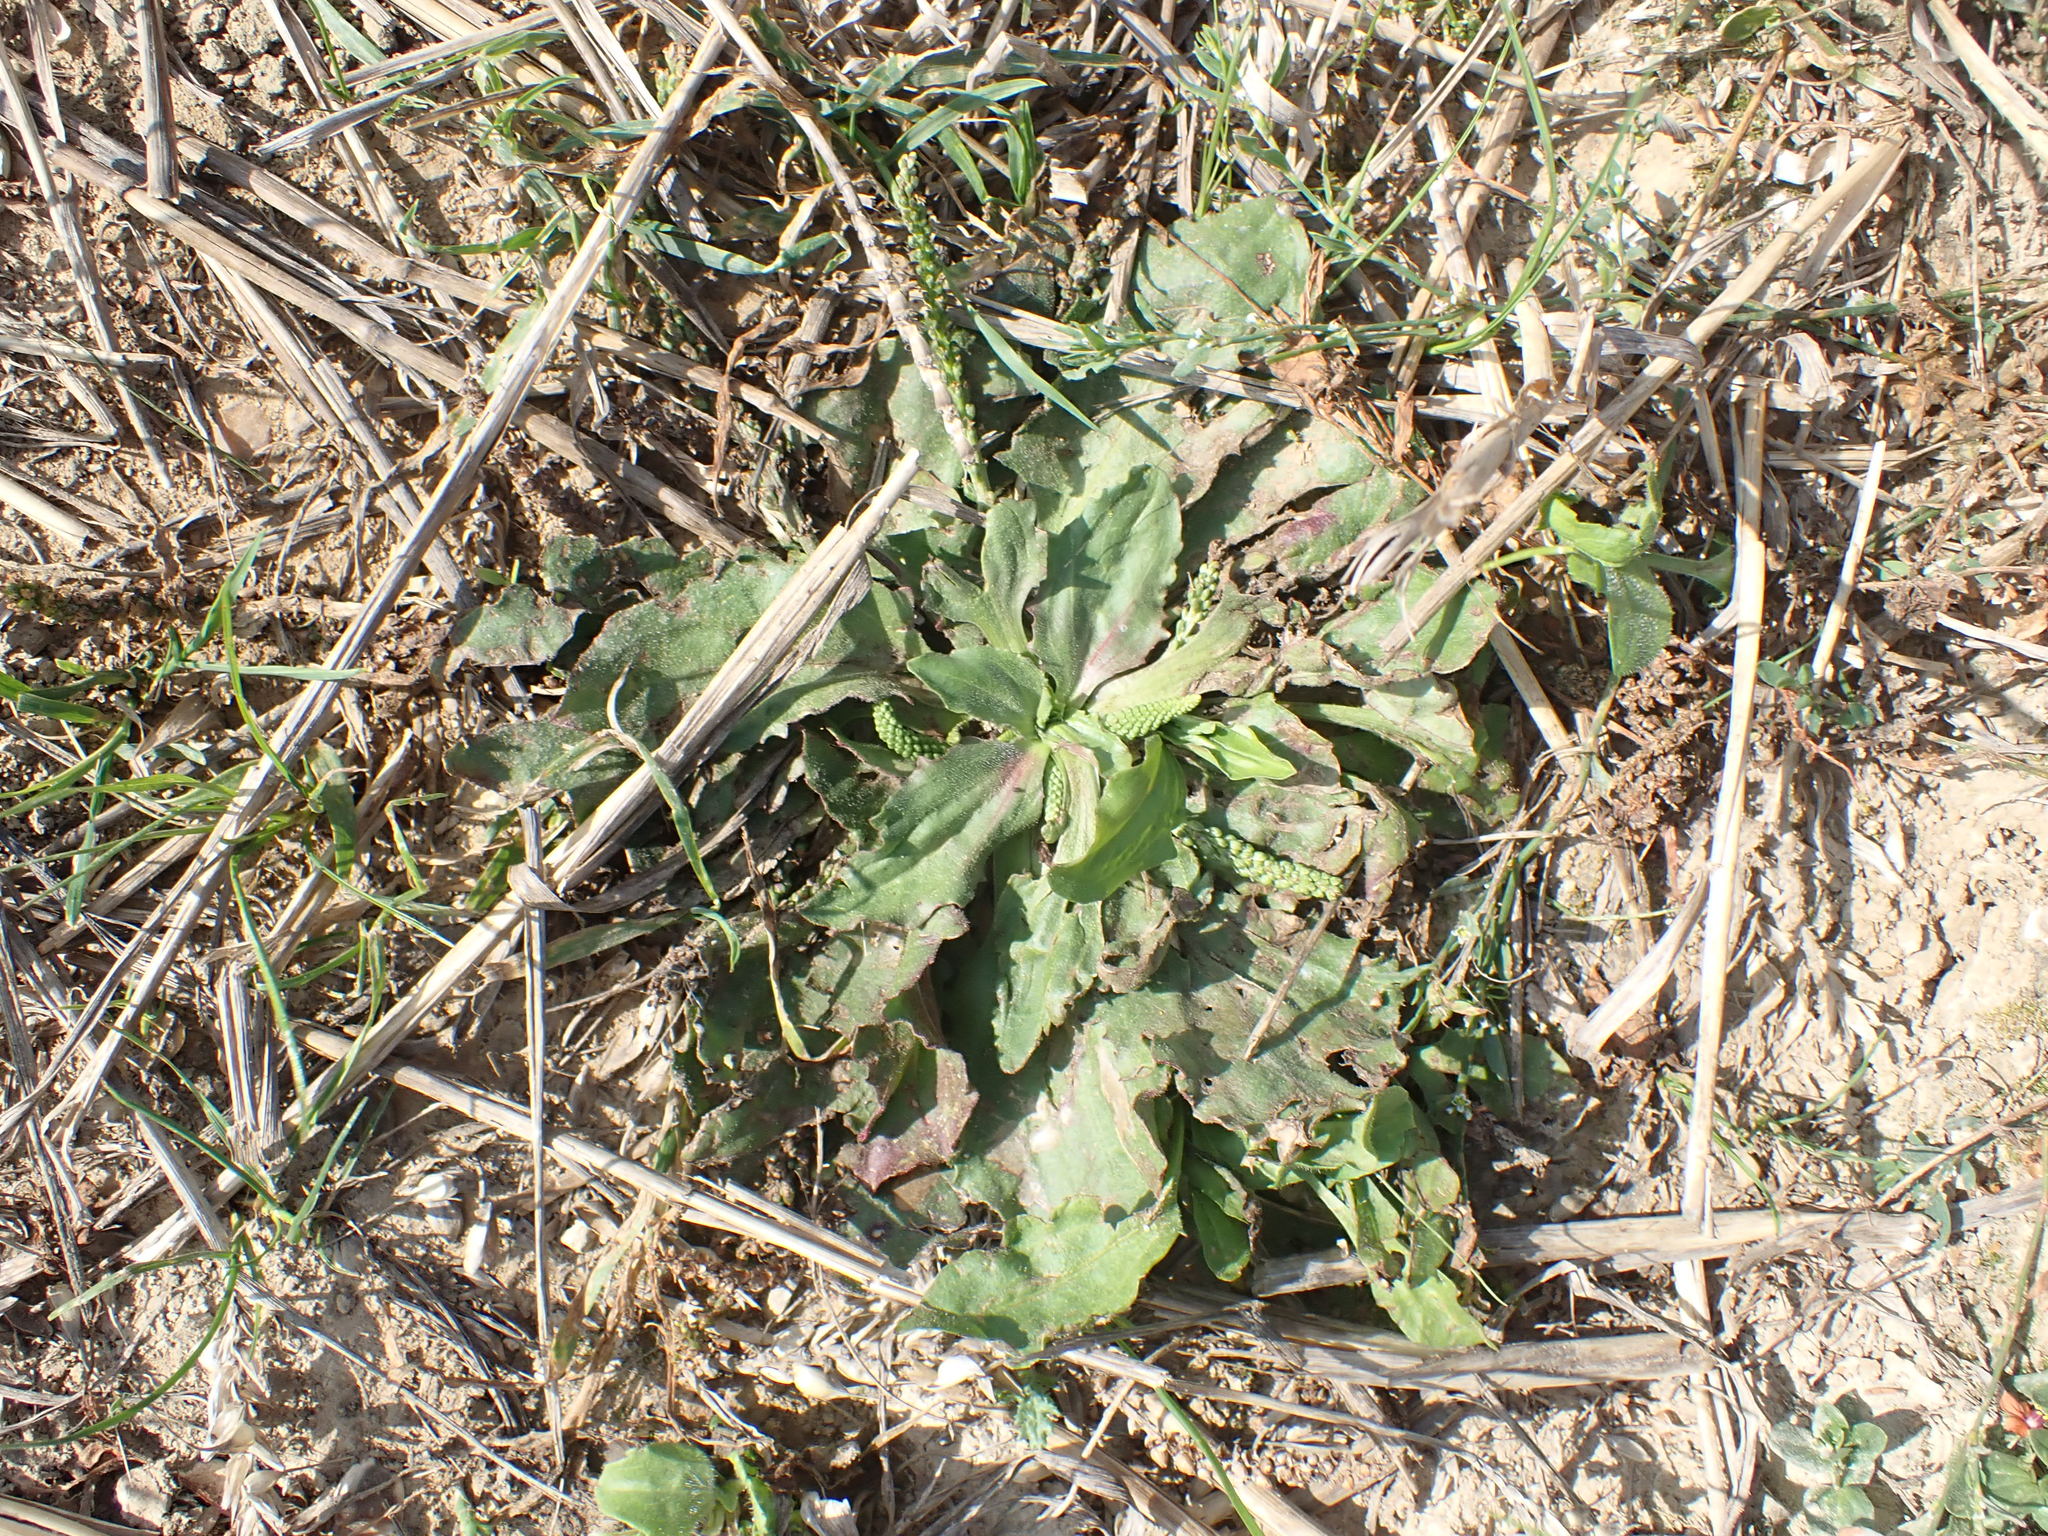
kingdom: Plantae
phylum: Tracheophyta
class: Magnoliopsida
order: Lamiales
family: Plantaginaceae
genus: Plantago
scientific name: Plantago major
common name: Common plantain
